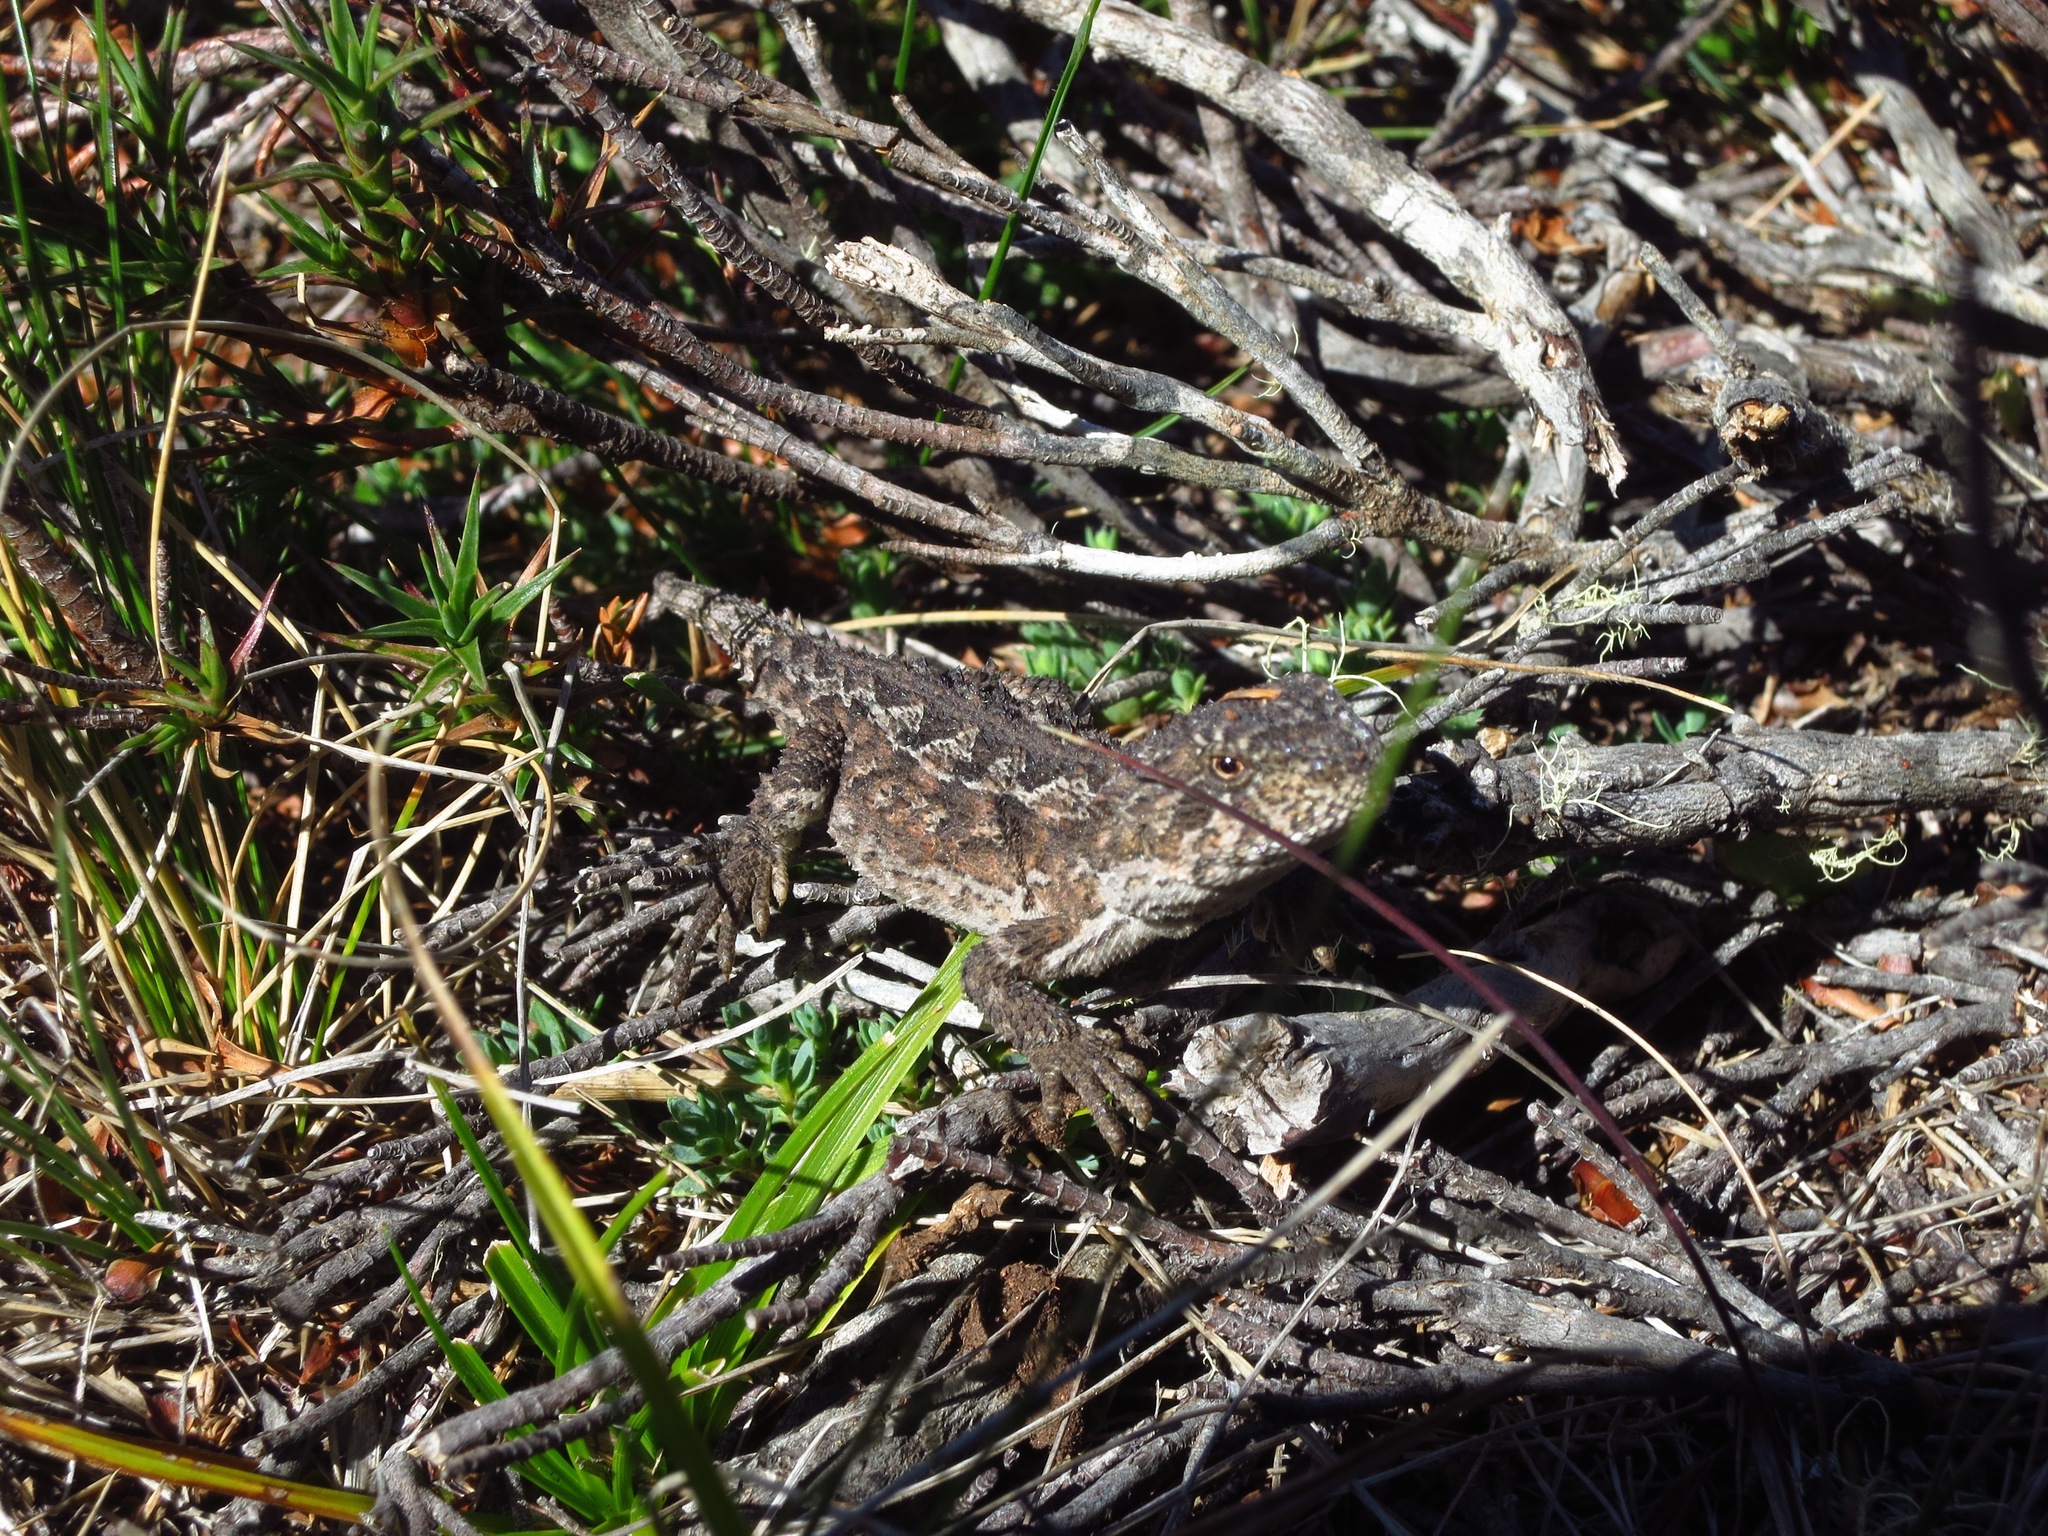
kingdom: Animalia
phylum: Chordata
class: Squamata
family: Agamidae
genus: Rankinia
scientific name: Rankinia diemensis
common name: Mountain dragon
